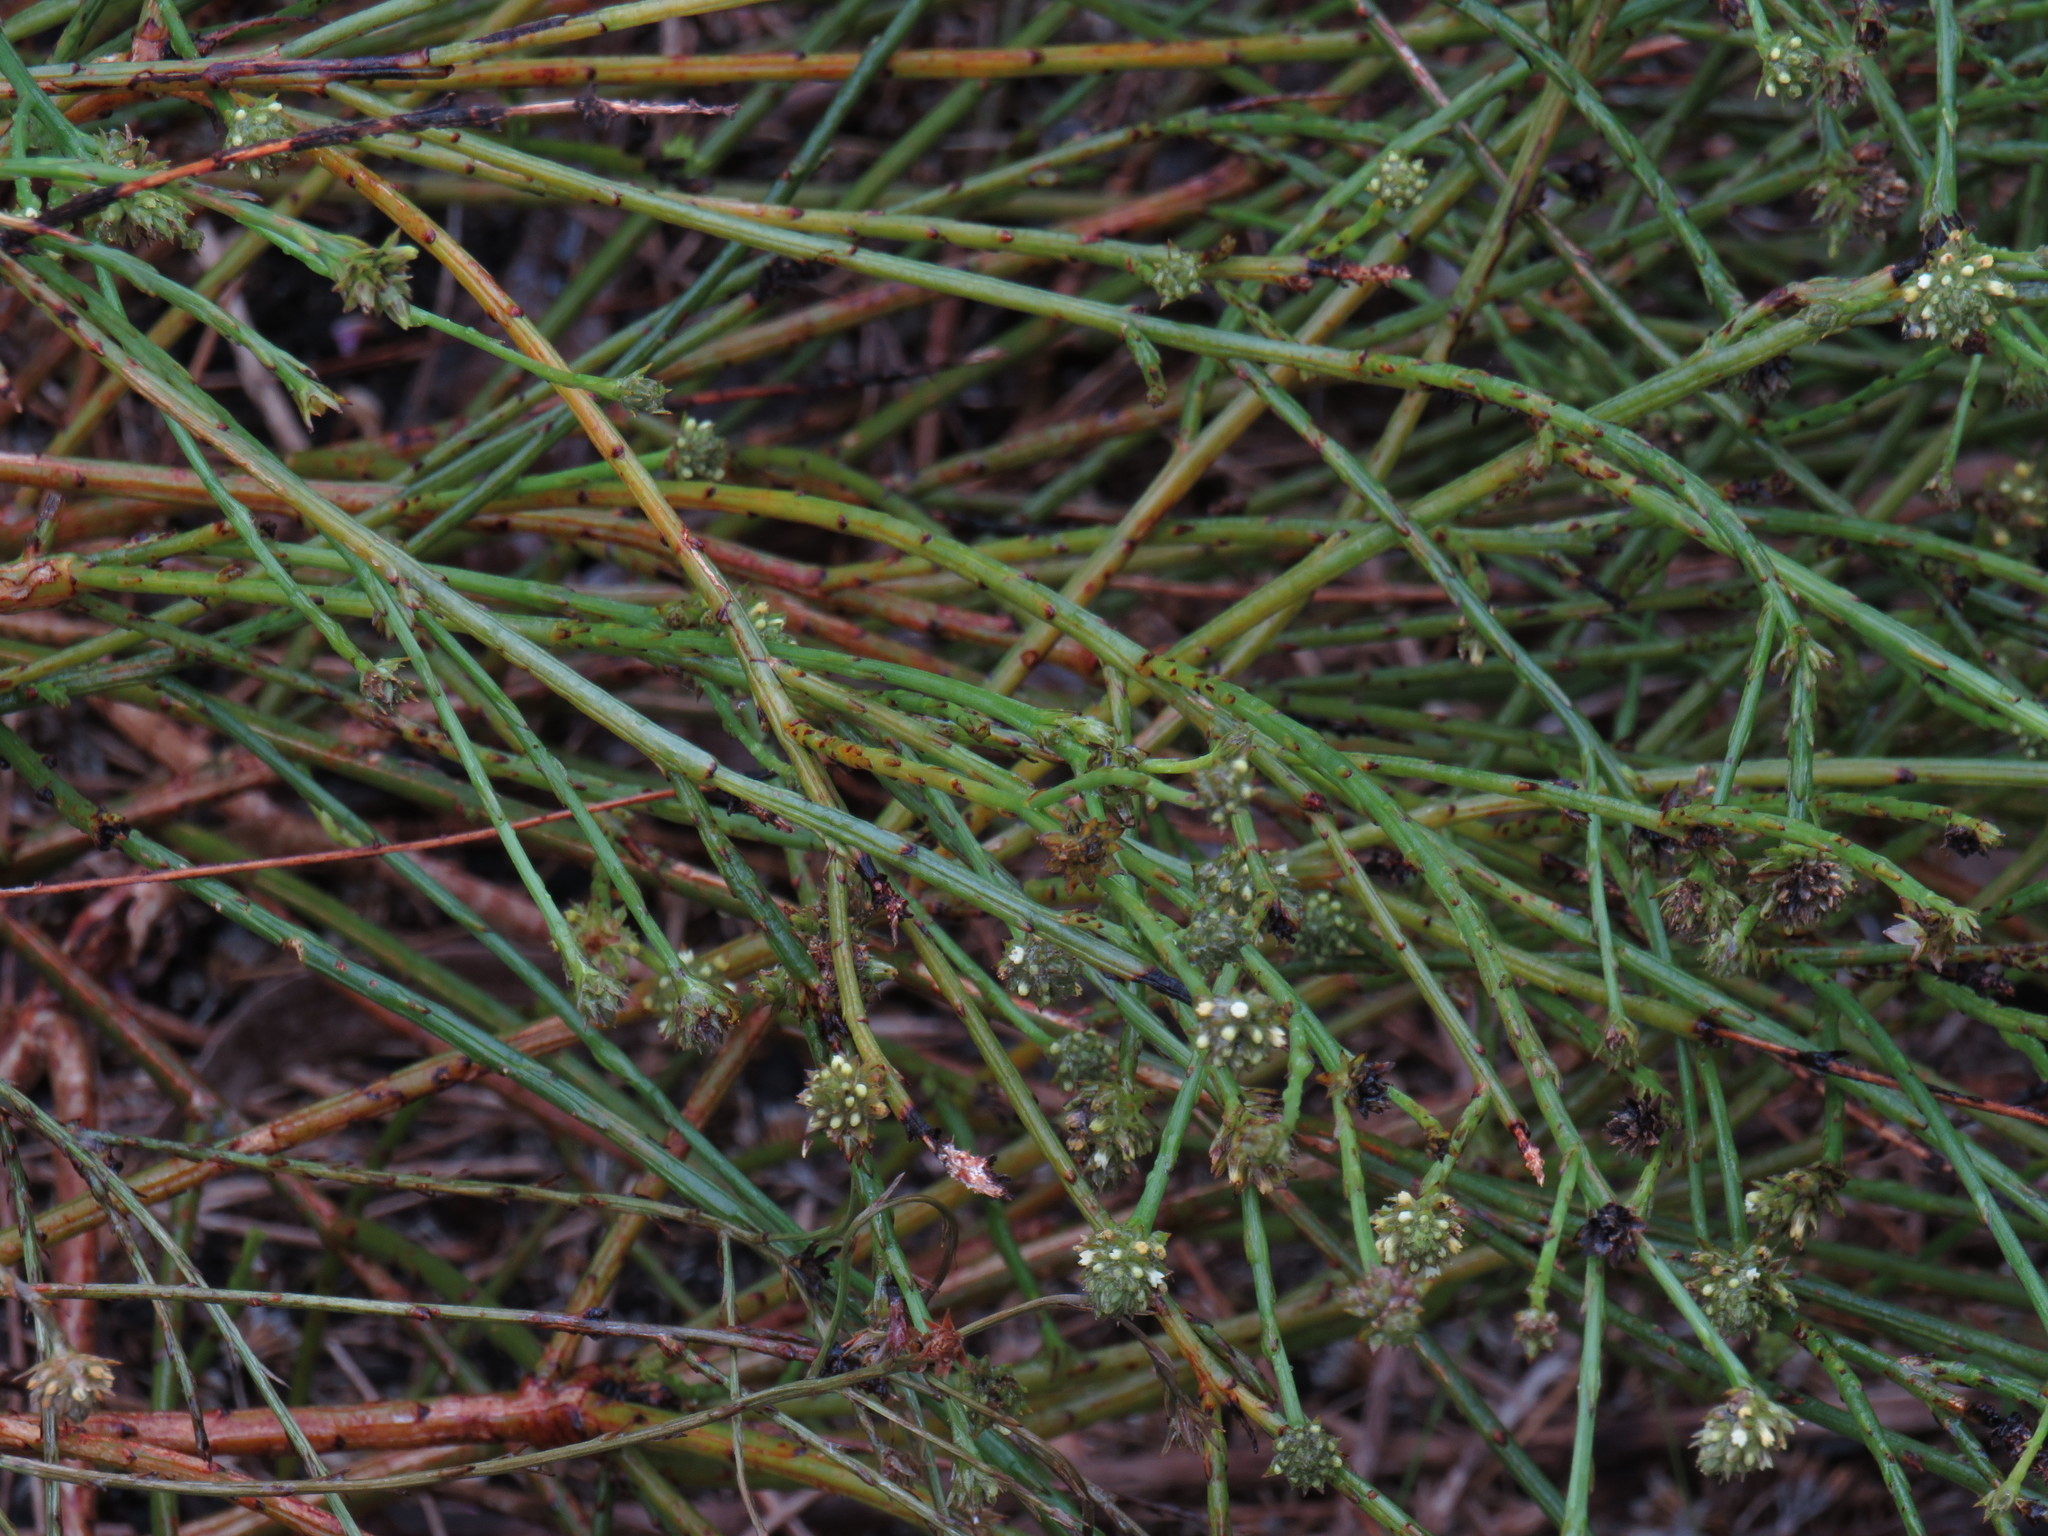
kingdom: Plantae
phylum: Tracheophyta
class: Magnoliopsida
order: Santalales
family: Thesiaceae
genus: Thesium
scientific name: Thesium aggregatum
